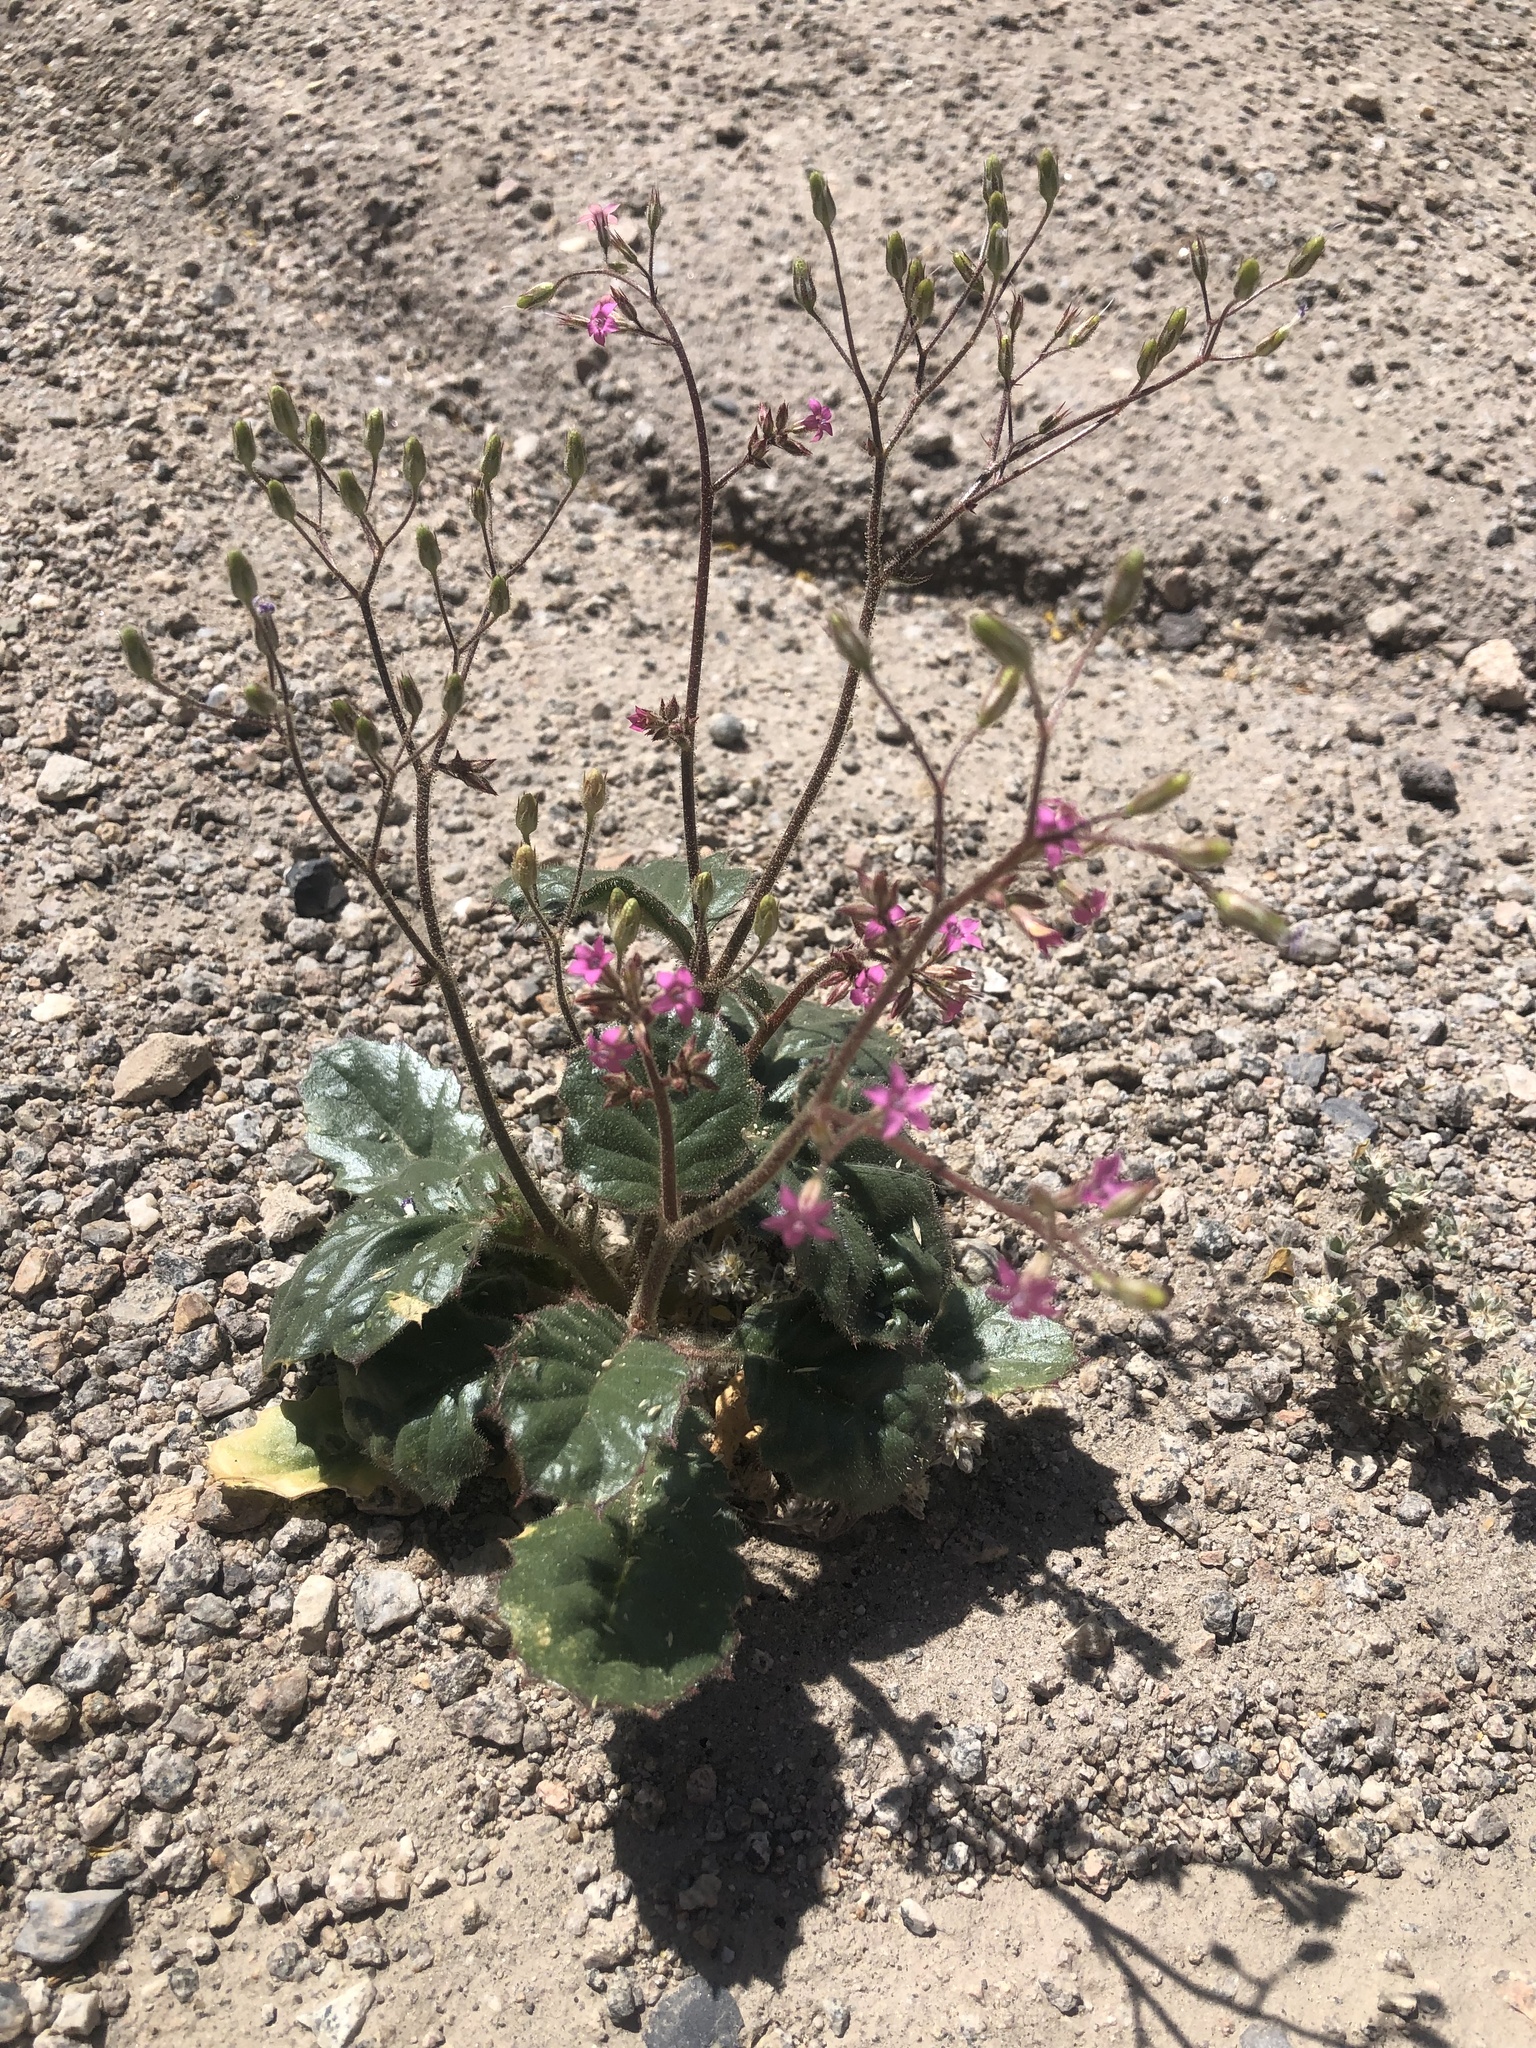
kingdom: Plantae
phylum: Tracheophyta
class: Magnoliopsida
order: Ericales
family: Polemoniaceae
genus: Aliciella
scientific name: Aliciella latifolia
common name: Broad-leaf gilia
